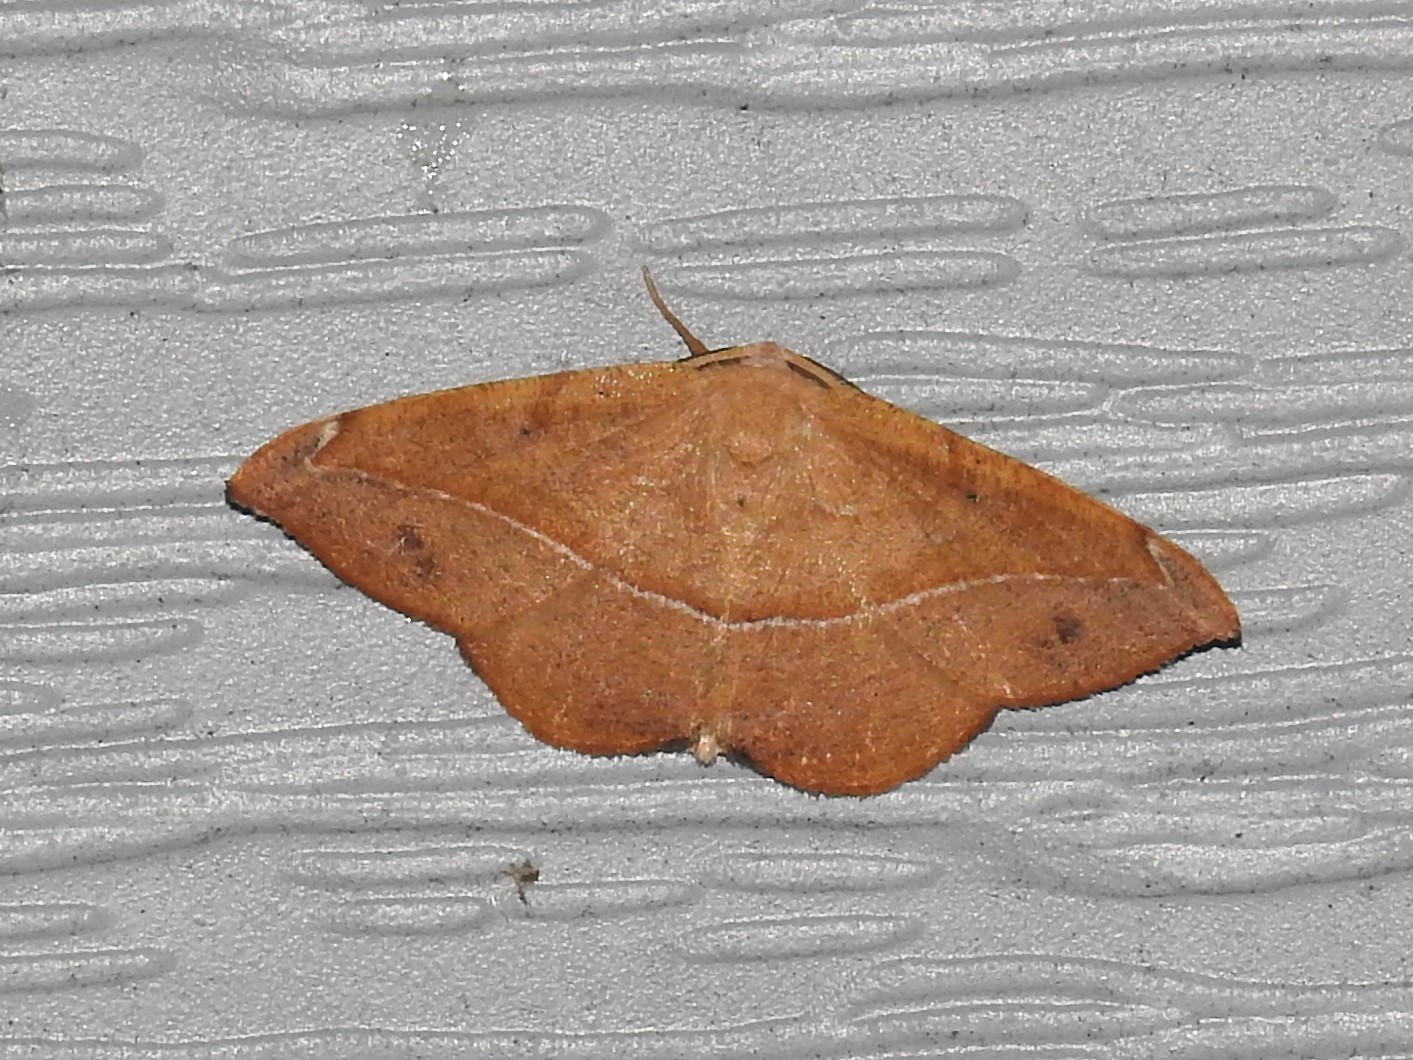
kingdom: Animalia
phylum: Arthropoda
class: Insecta
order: Lepidoptera
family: Geometridae
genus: Patalene
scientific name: Patalene olyzonaria
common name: Juniper geometer moth
